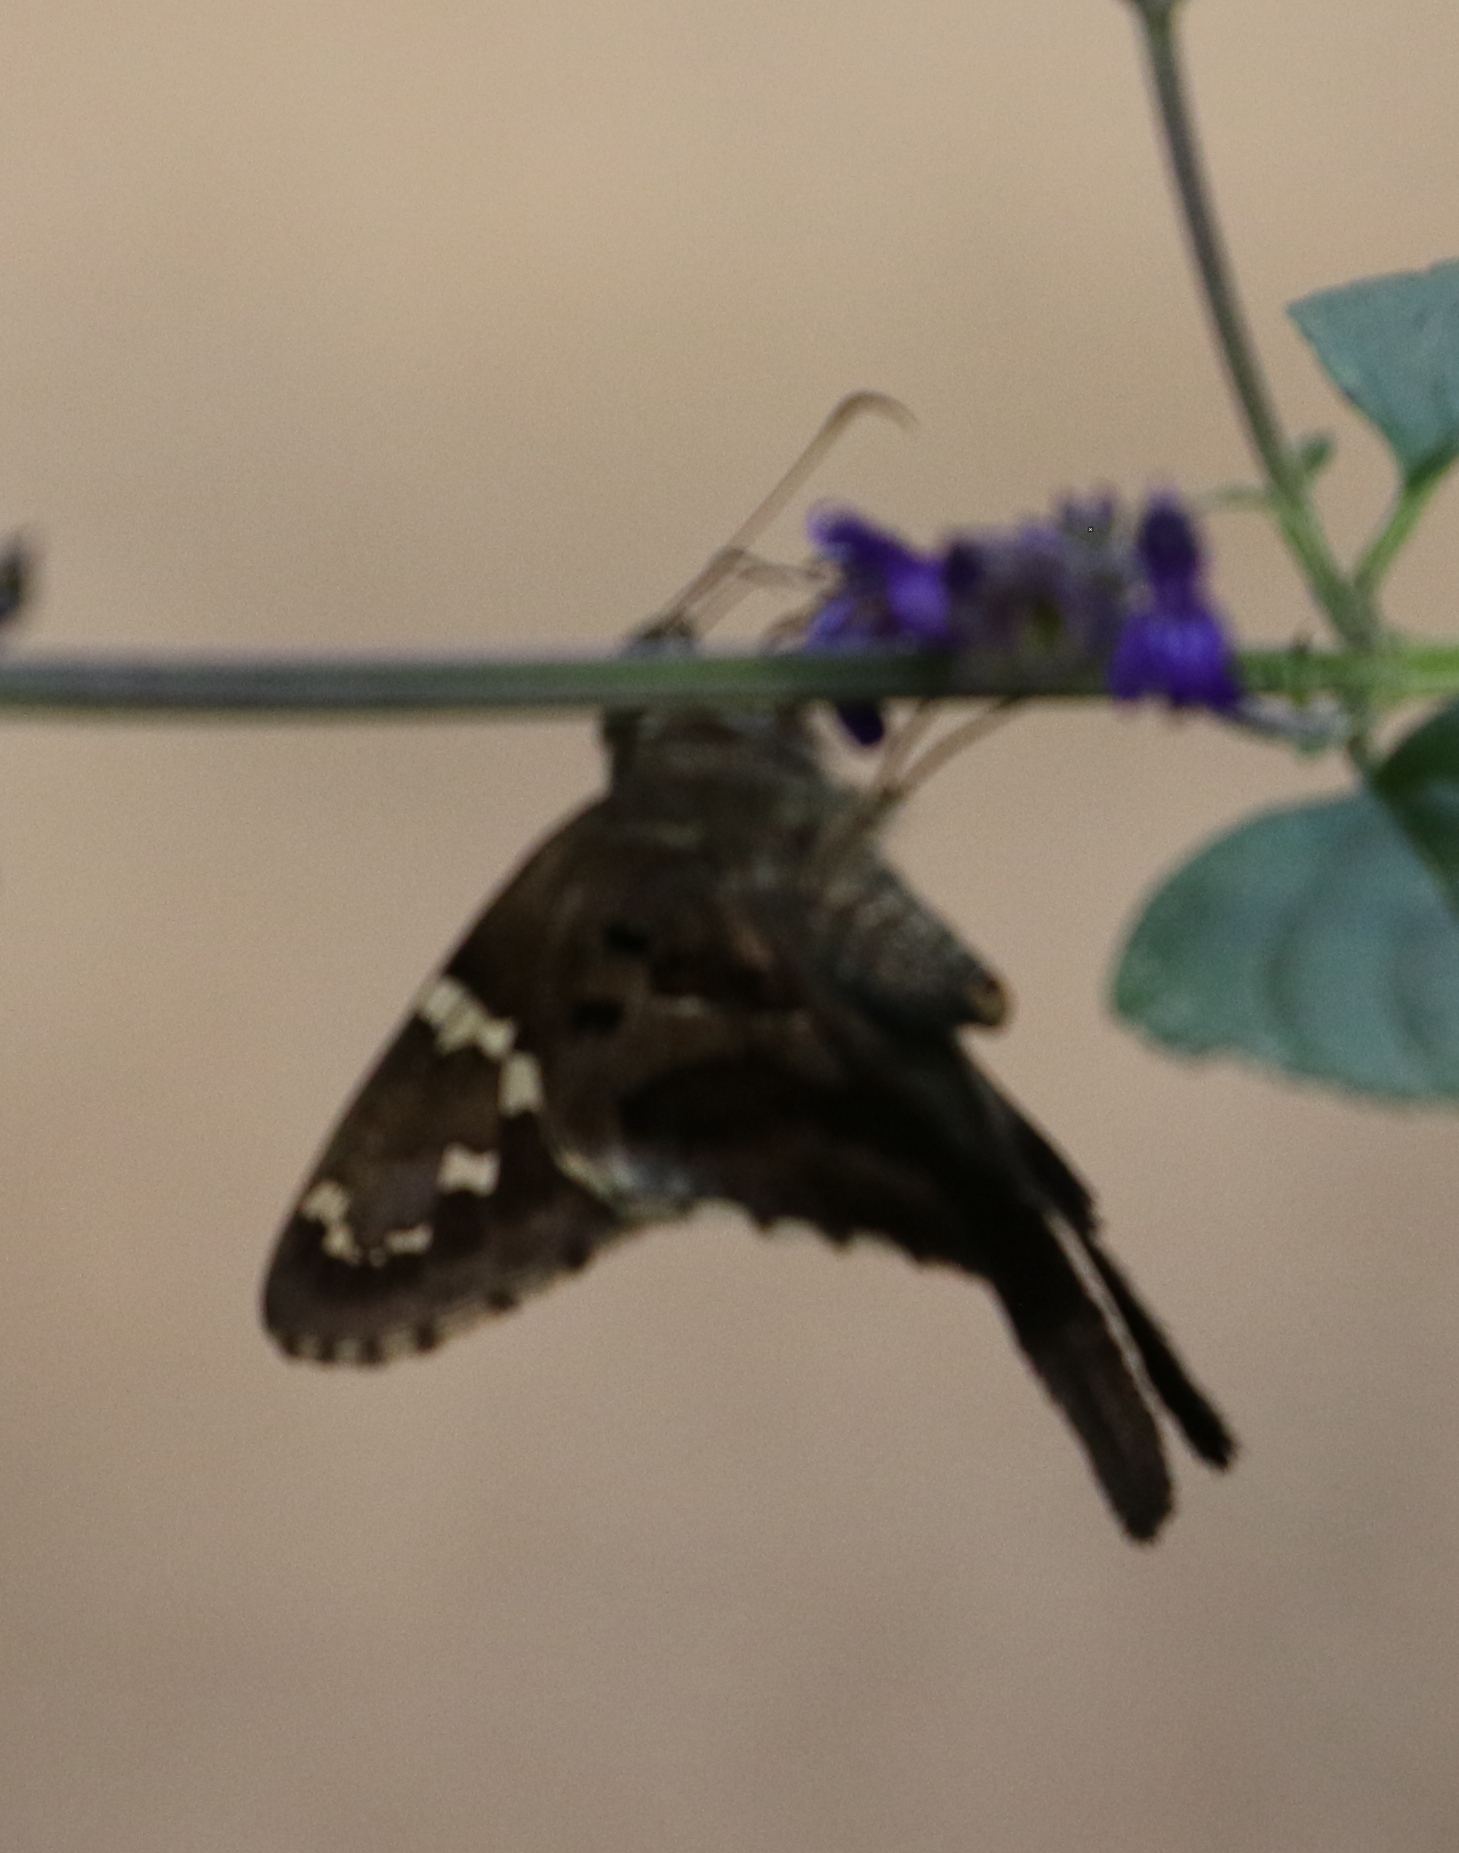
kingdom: Animalia
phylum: Arthropoda
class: Insecta
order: Lepidoptera
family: Hesperiidae
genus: Urbanus
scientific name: Urbanus proteus
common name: Long-tailed skipper
